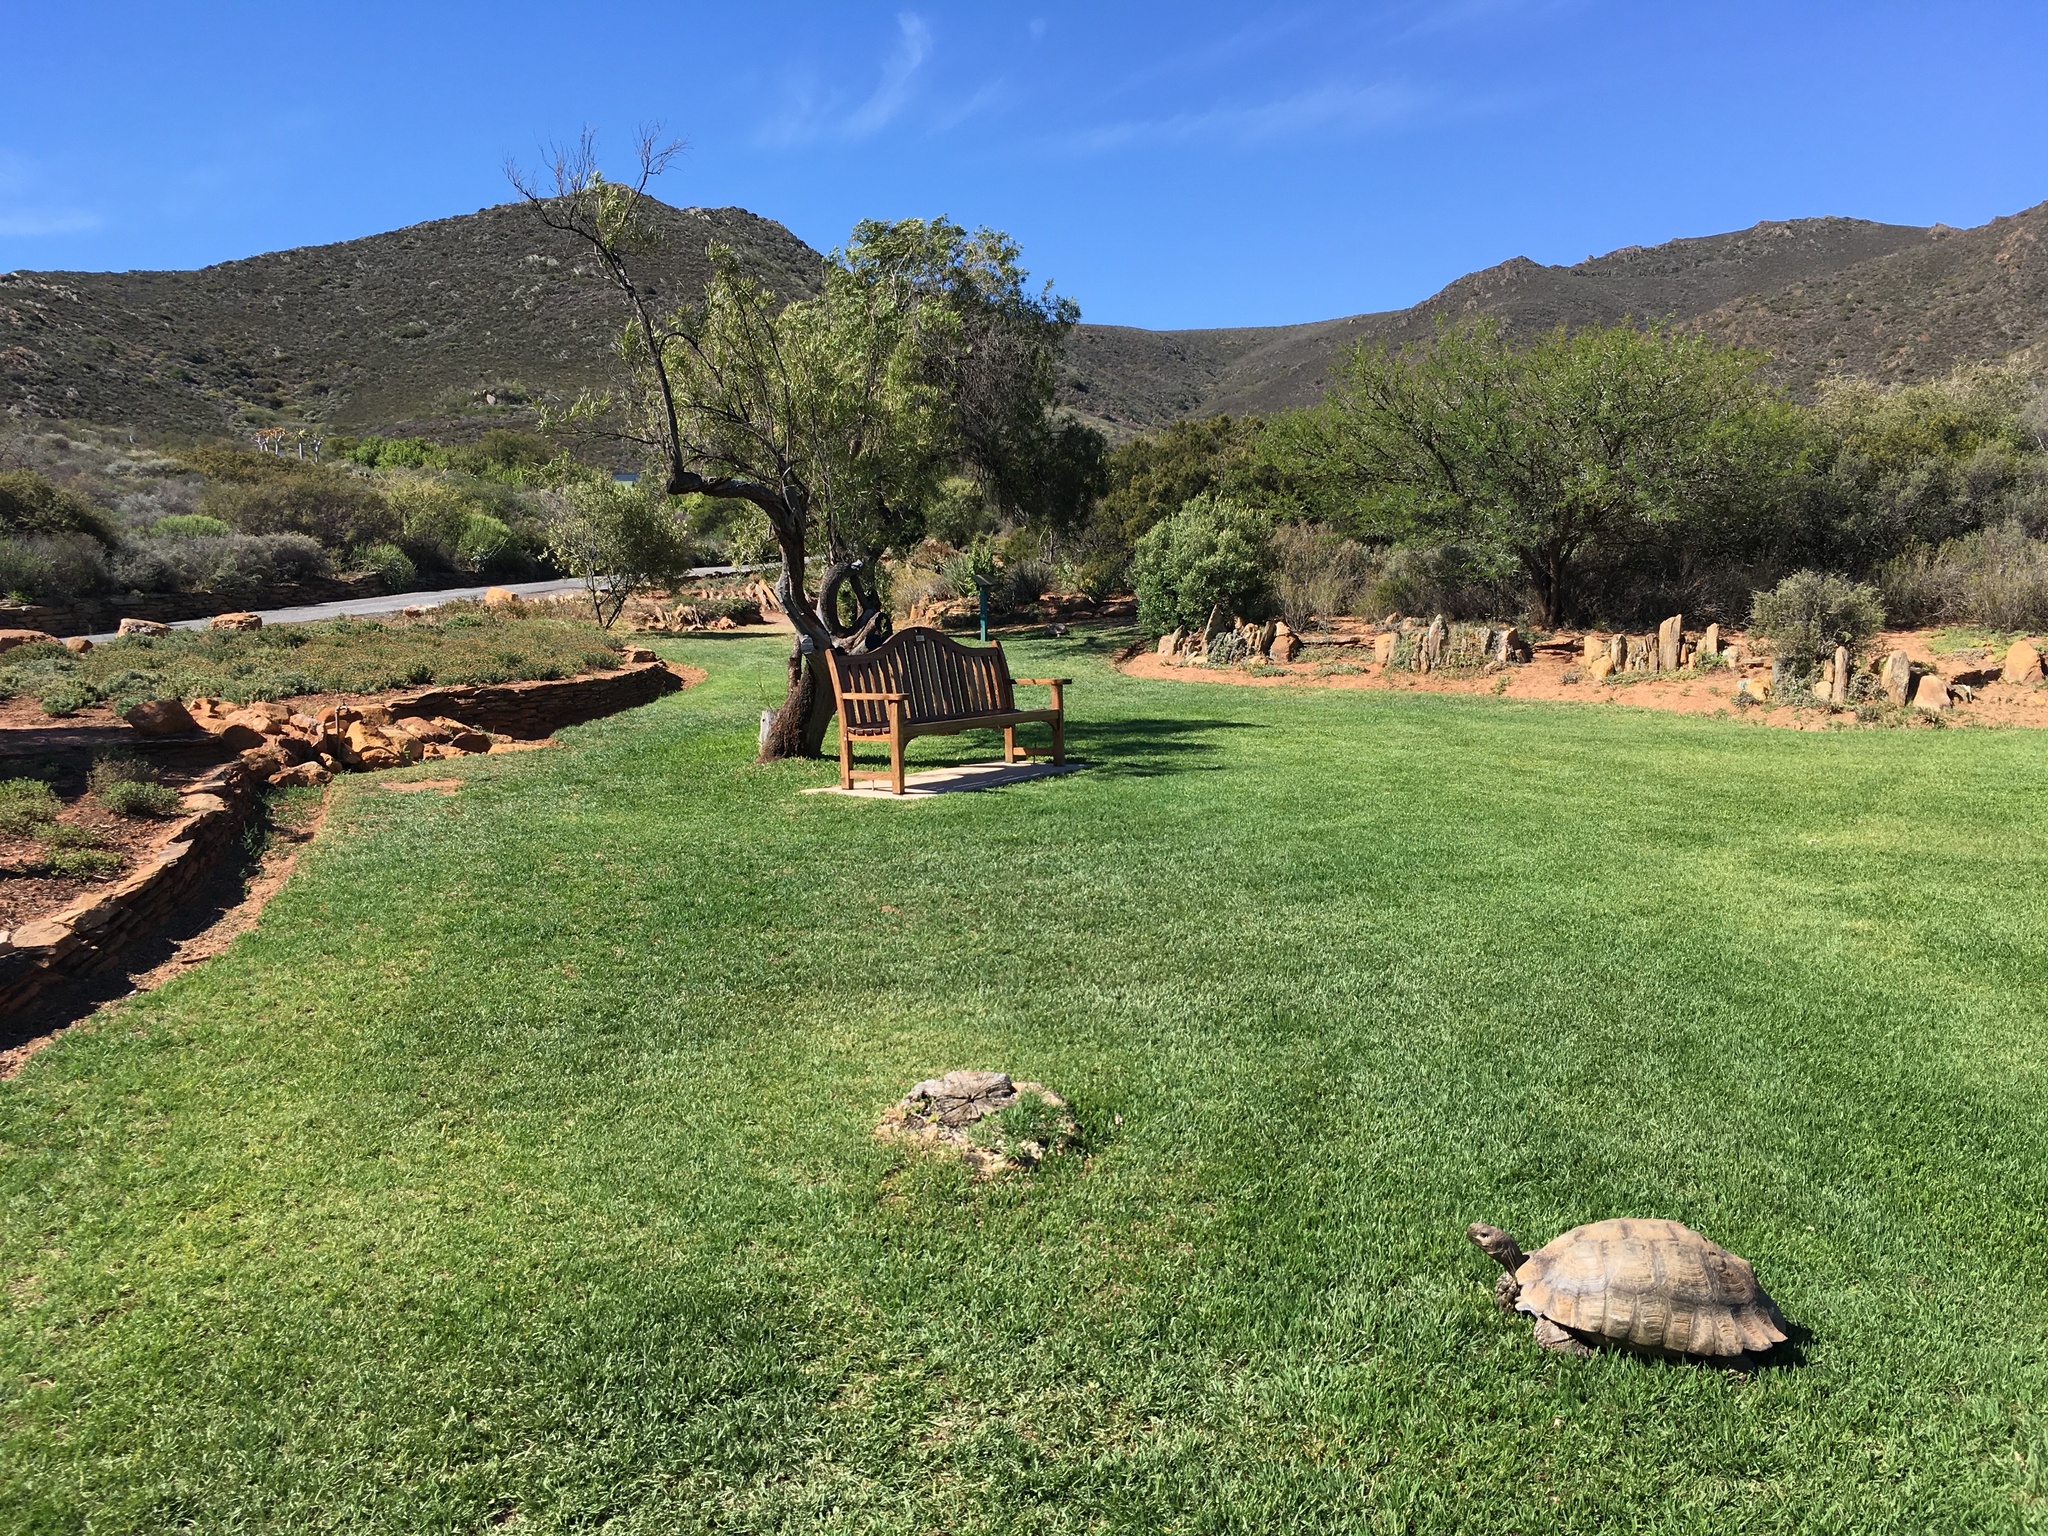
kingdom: Animalia
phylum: Chordata
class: Testudines
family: Testudinidae
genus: Stigmochelys
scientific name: Stigmochelys pardalis
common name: Leopard tortoise
